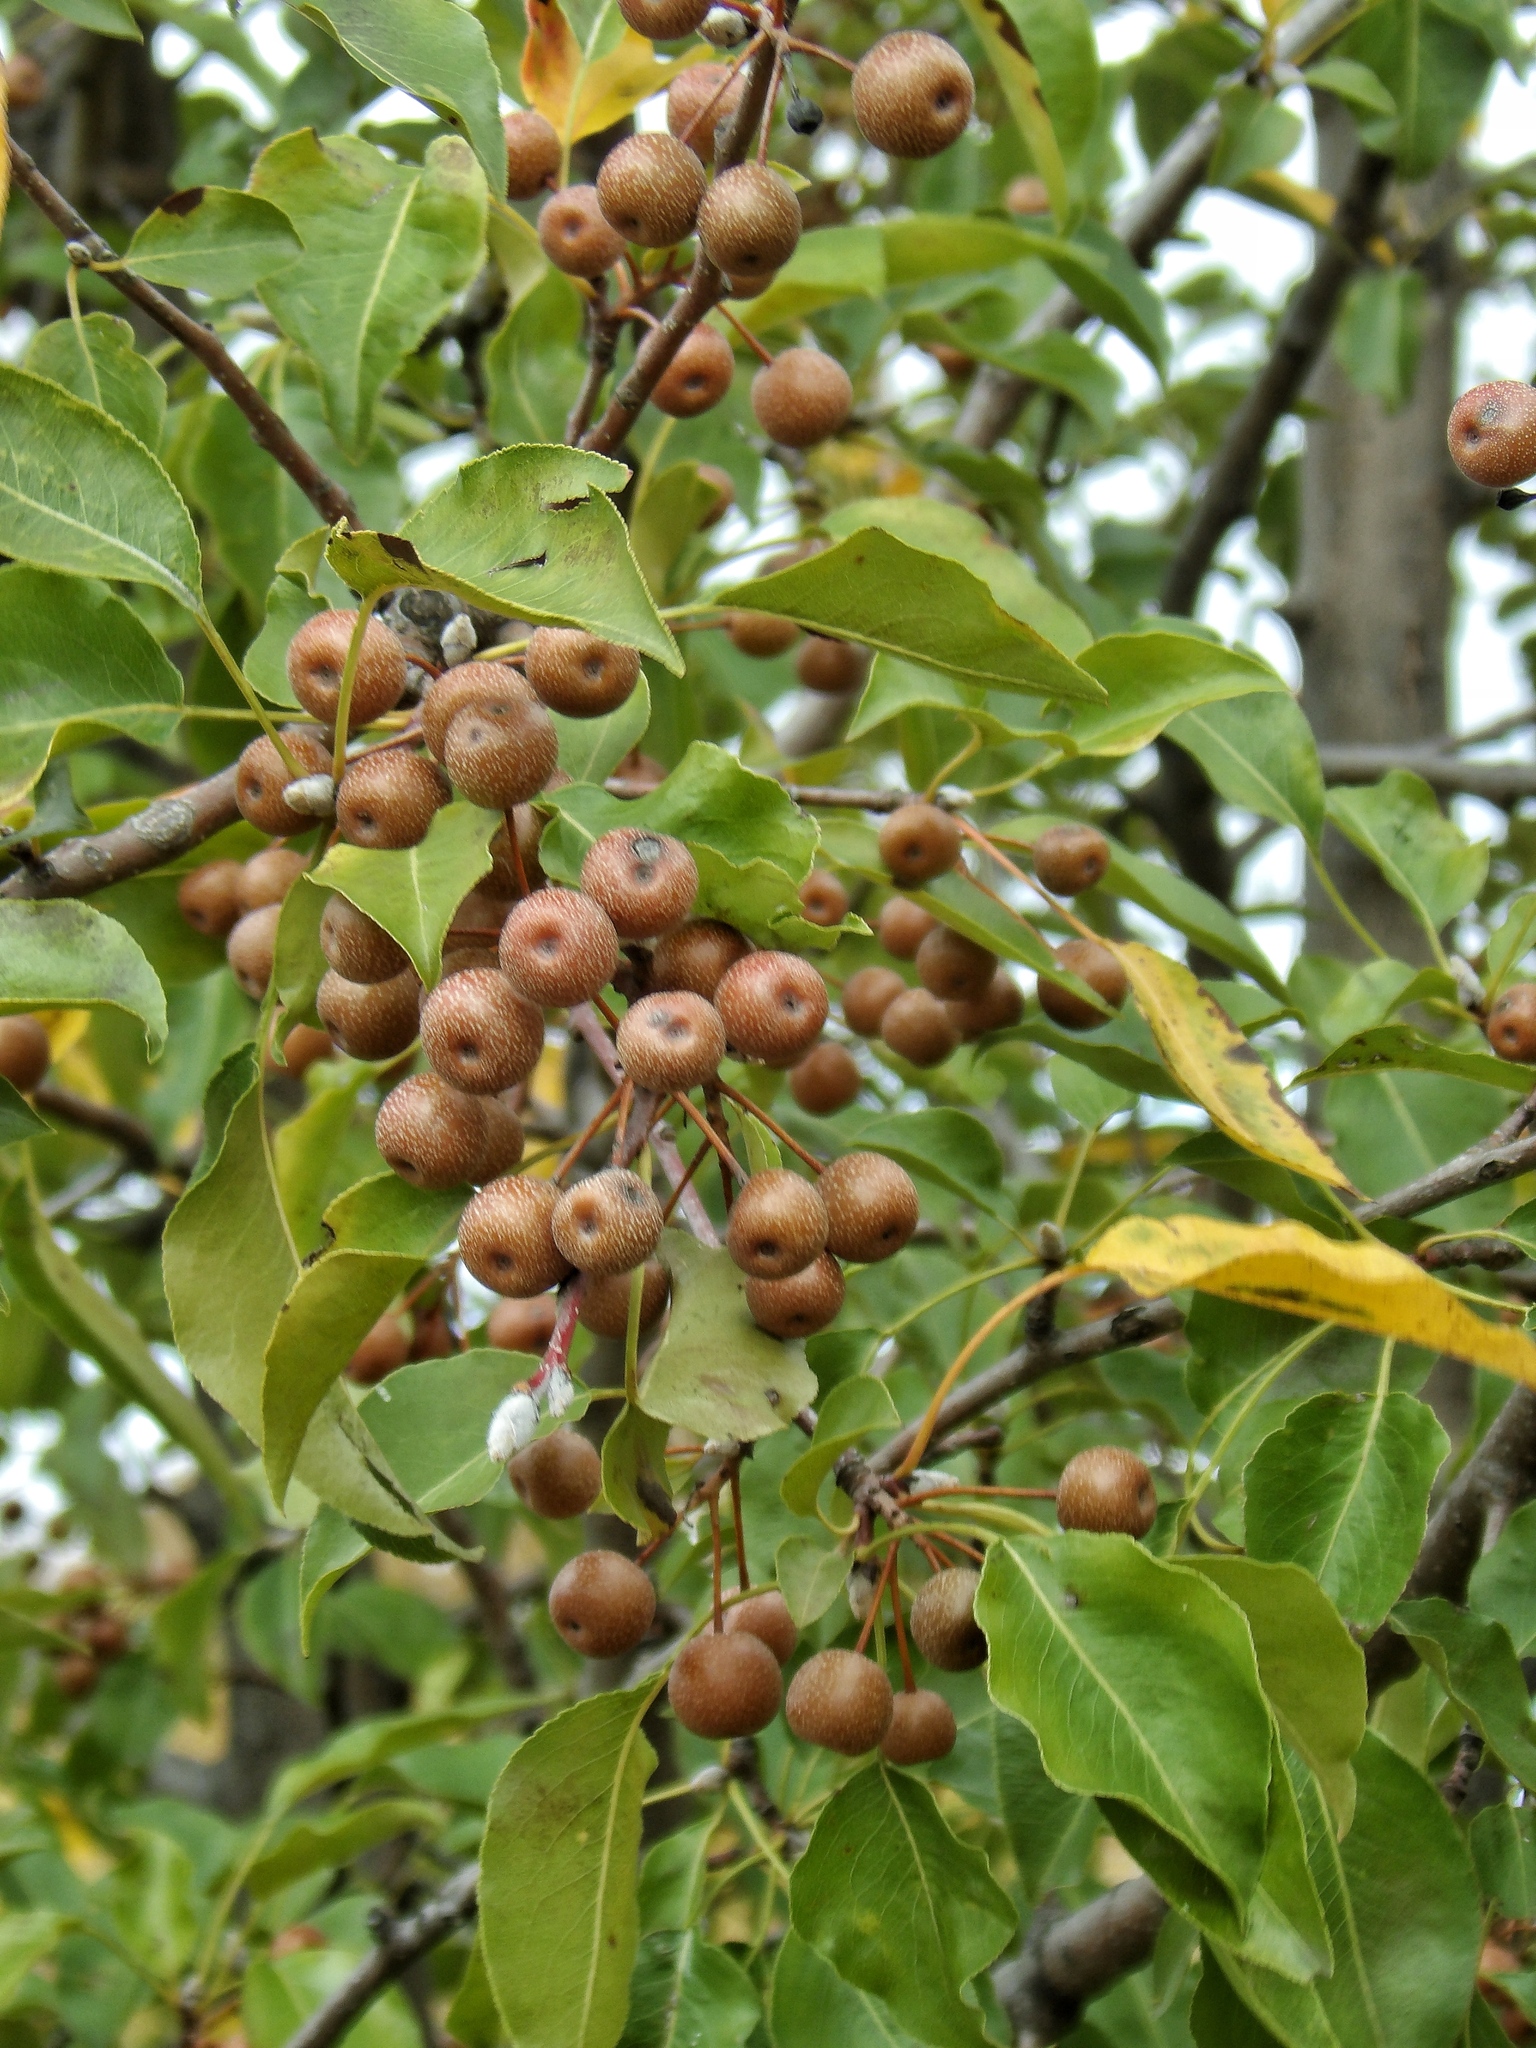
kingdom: Plantae
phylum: Tracheophyta
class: Magnoliopsida
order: Rosales
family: Rosaceae
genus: Pyrus
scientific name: Pyrus calleryana
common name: Callery pear
